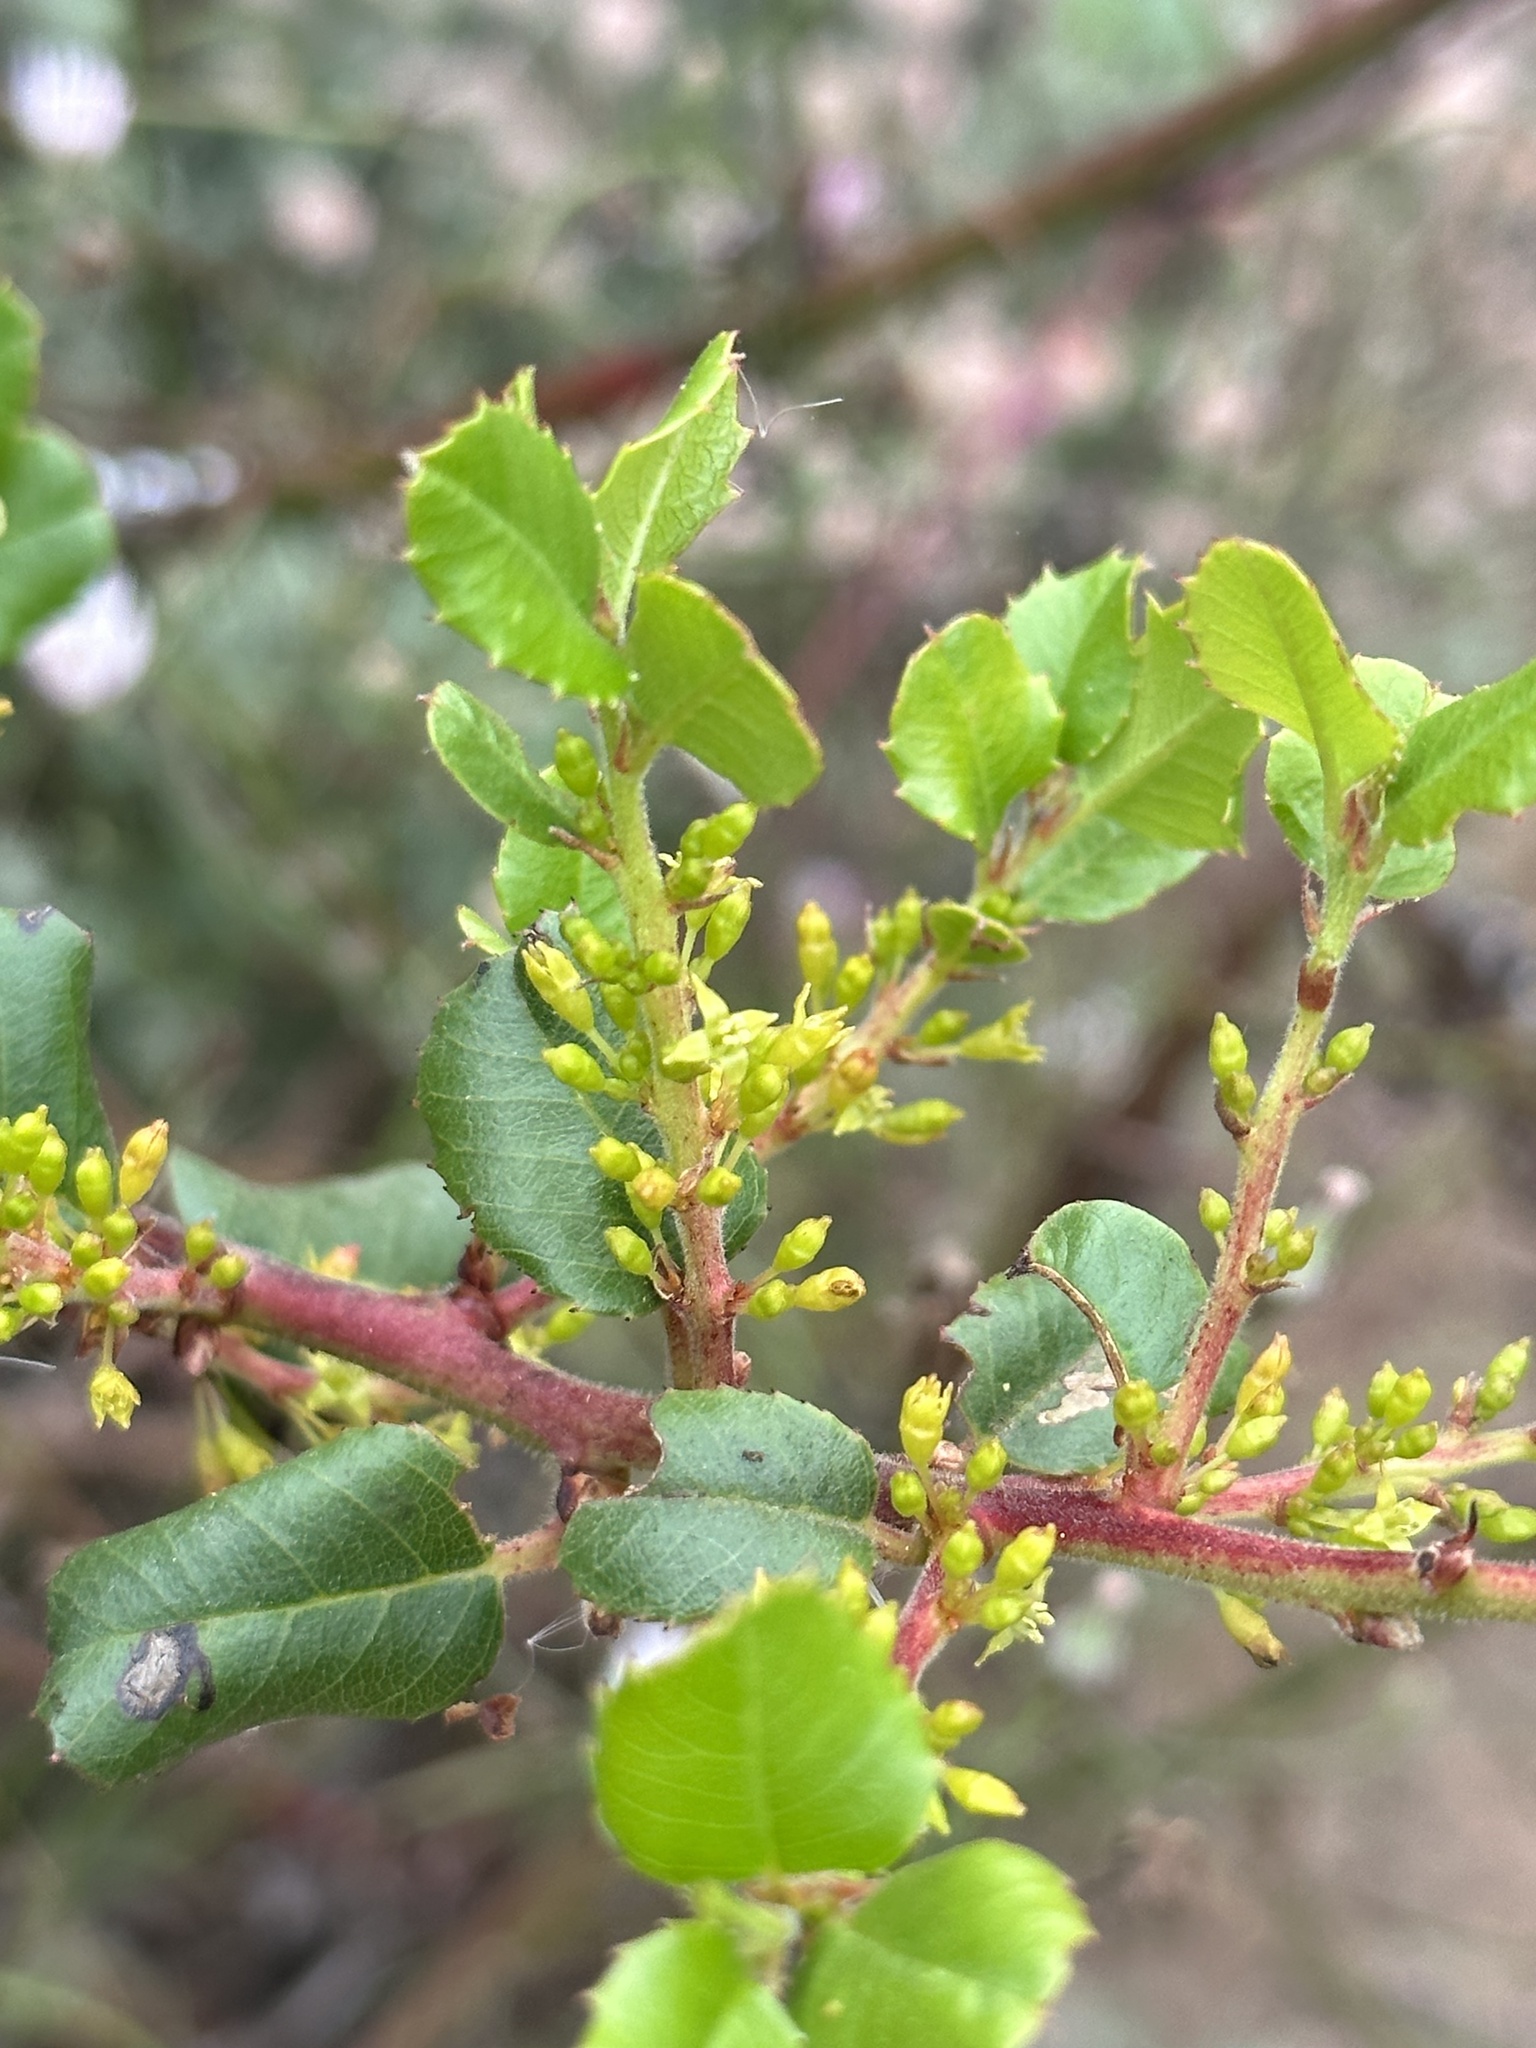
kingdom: Plantae
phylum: Tracheophyta
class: Magnoliopsida
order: Rosales
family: Rhamnaceae
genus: Endotropis
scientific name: Endotropis crocea
